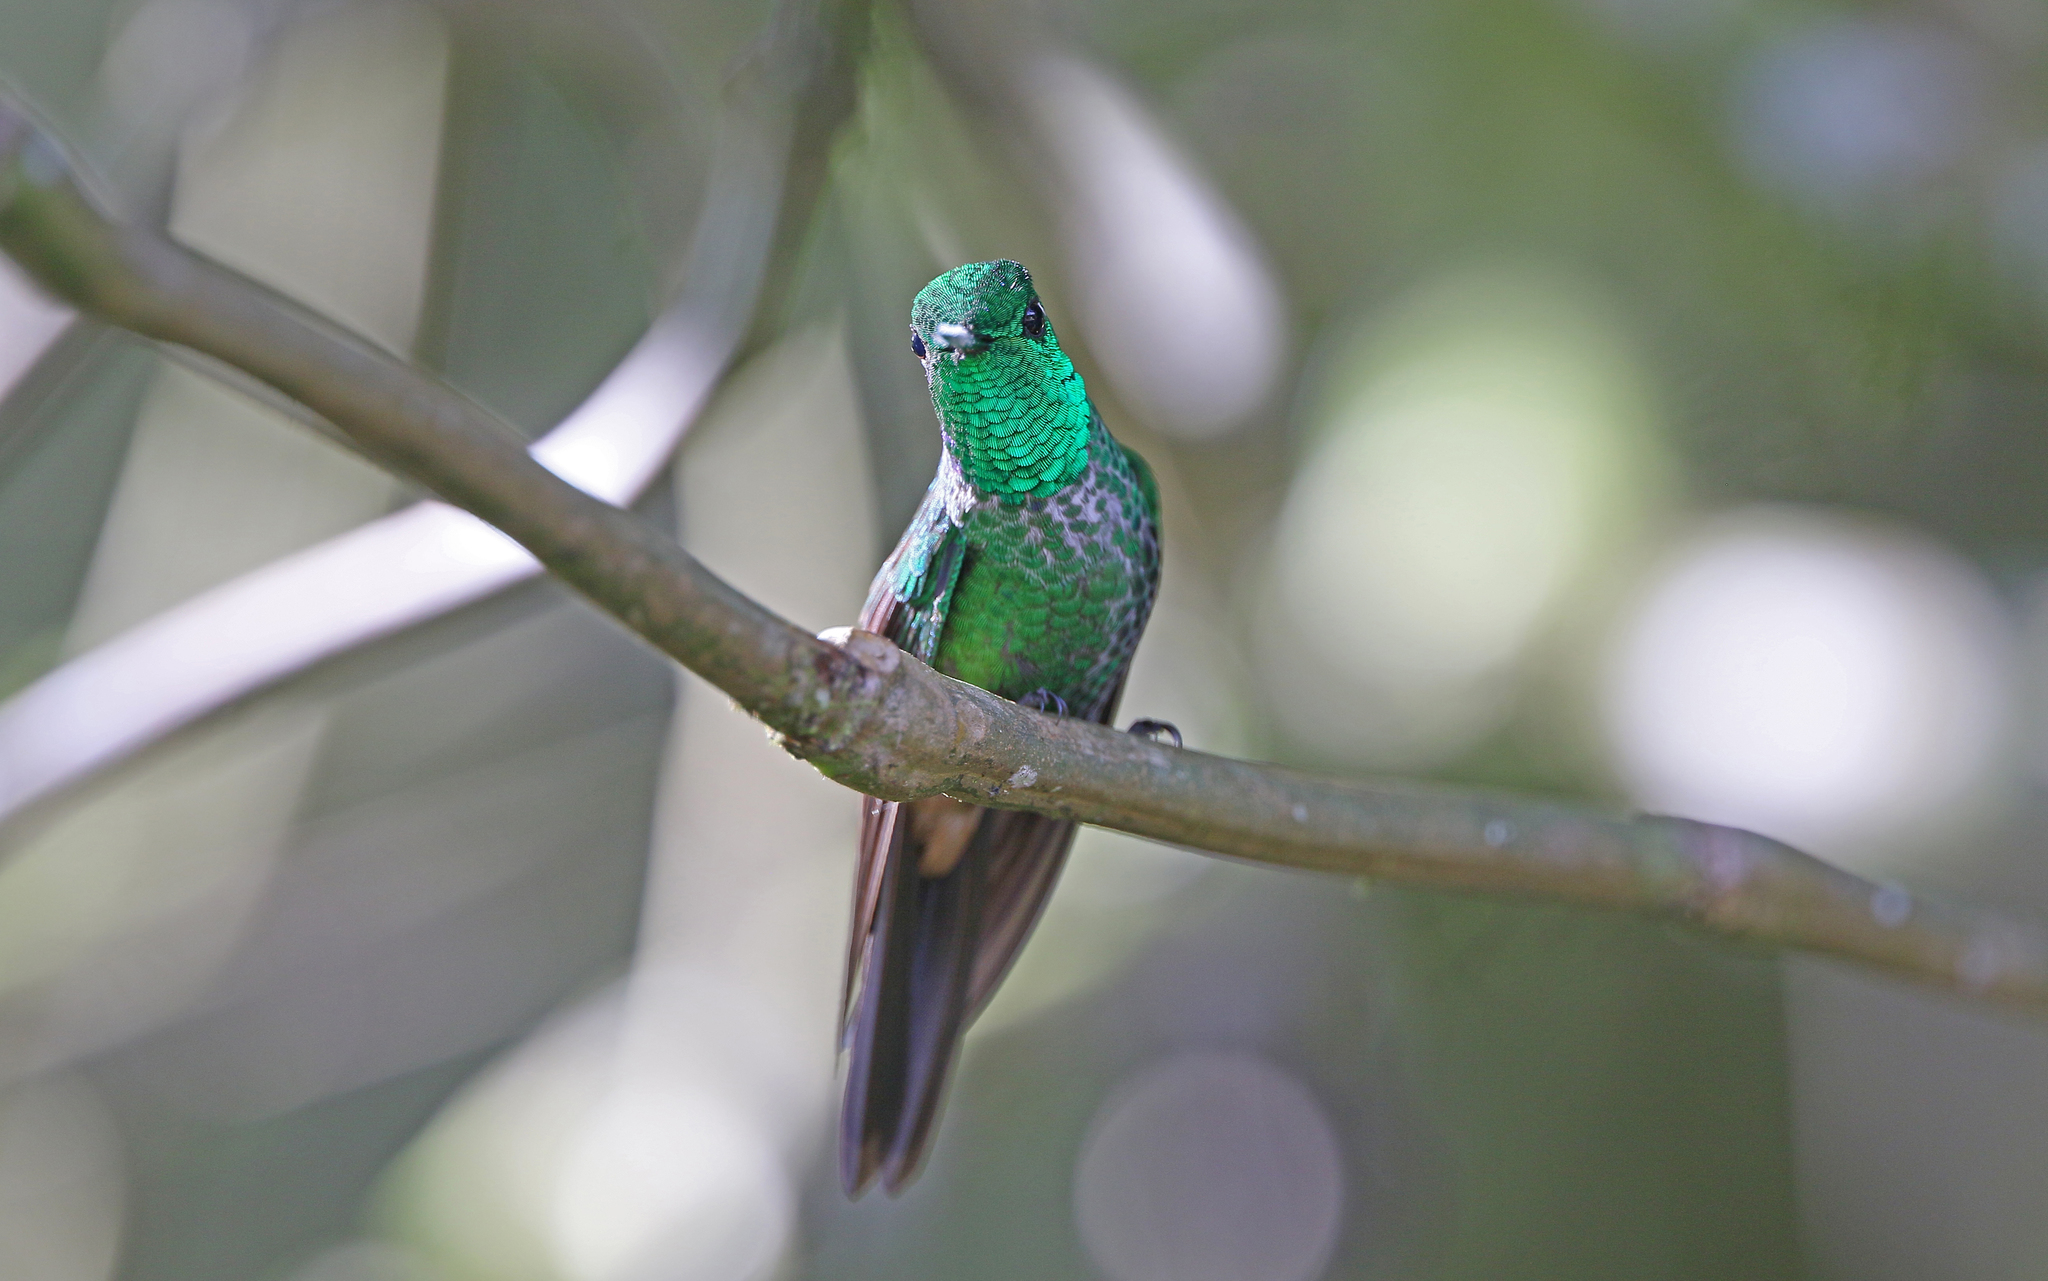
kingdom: Animalia
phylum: Chordata
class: Aves
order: Apodiformes
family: Trochilidae
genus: Urosticte
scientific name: Urosticte ruficrissa
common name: Rufous-vented whitetip
